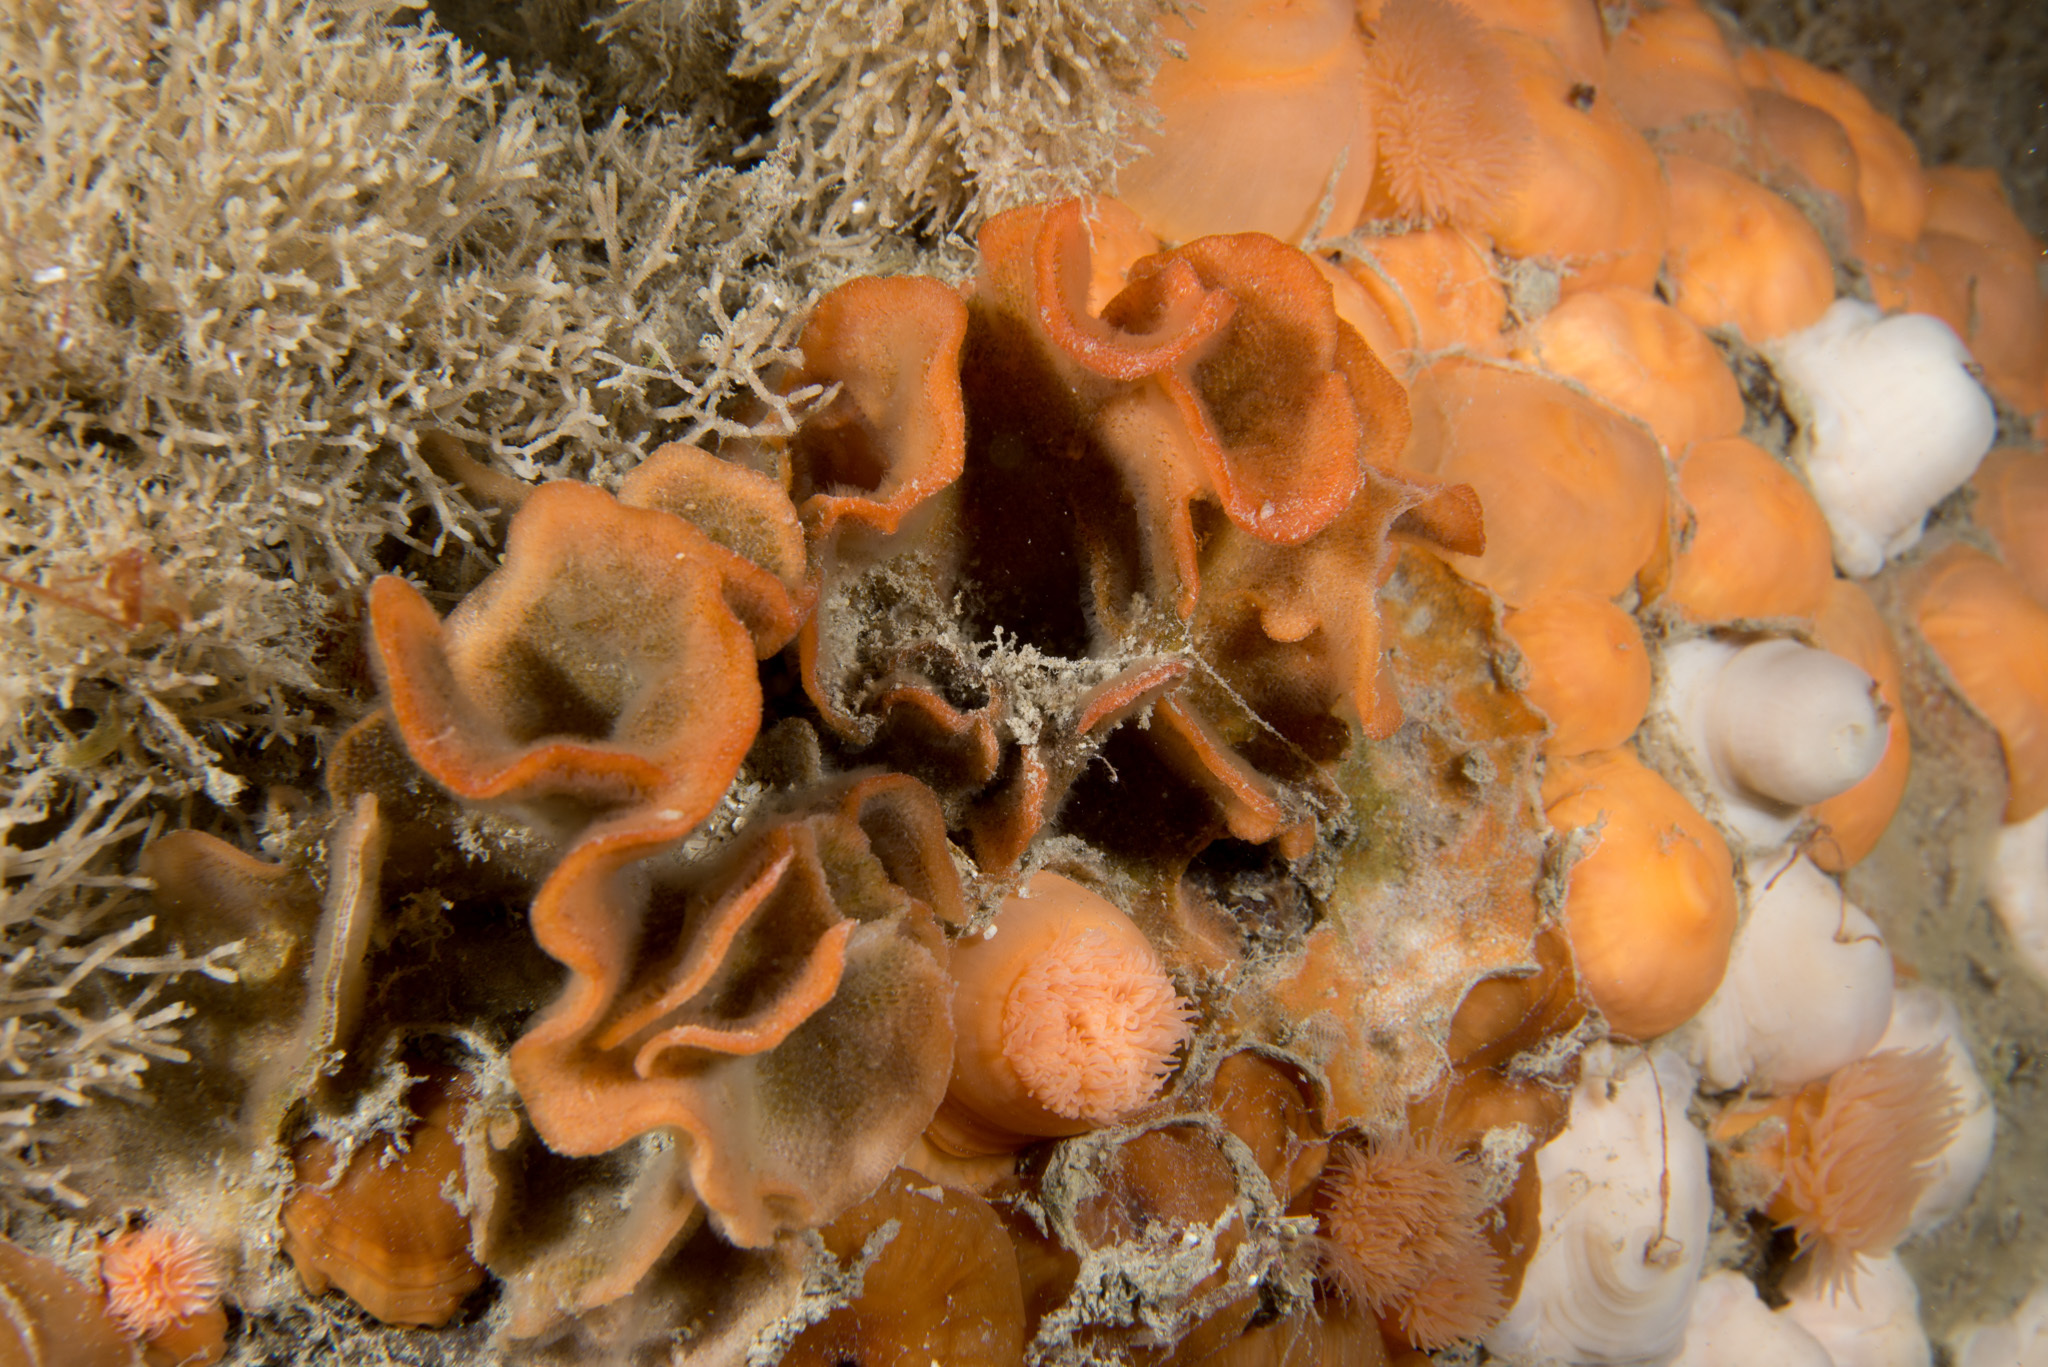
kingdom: Animalia
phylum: Bryozoa
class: Gymnolaemata
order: Cheilostomatida
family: Bitectiporidae
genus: Pentapora
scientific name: Pentapora foliacea
